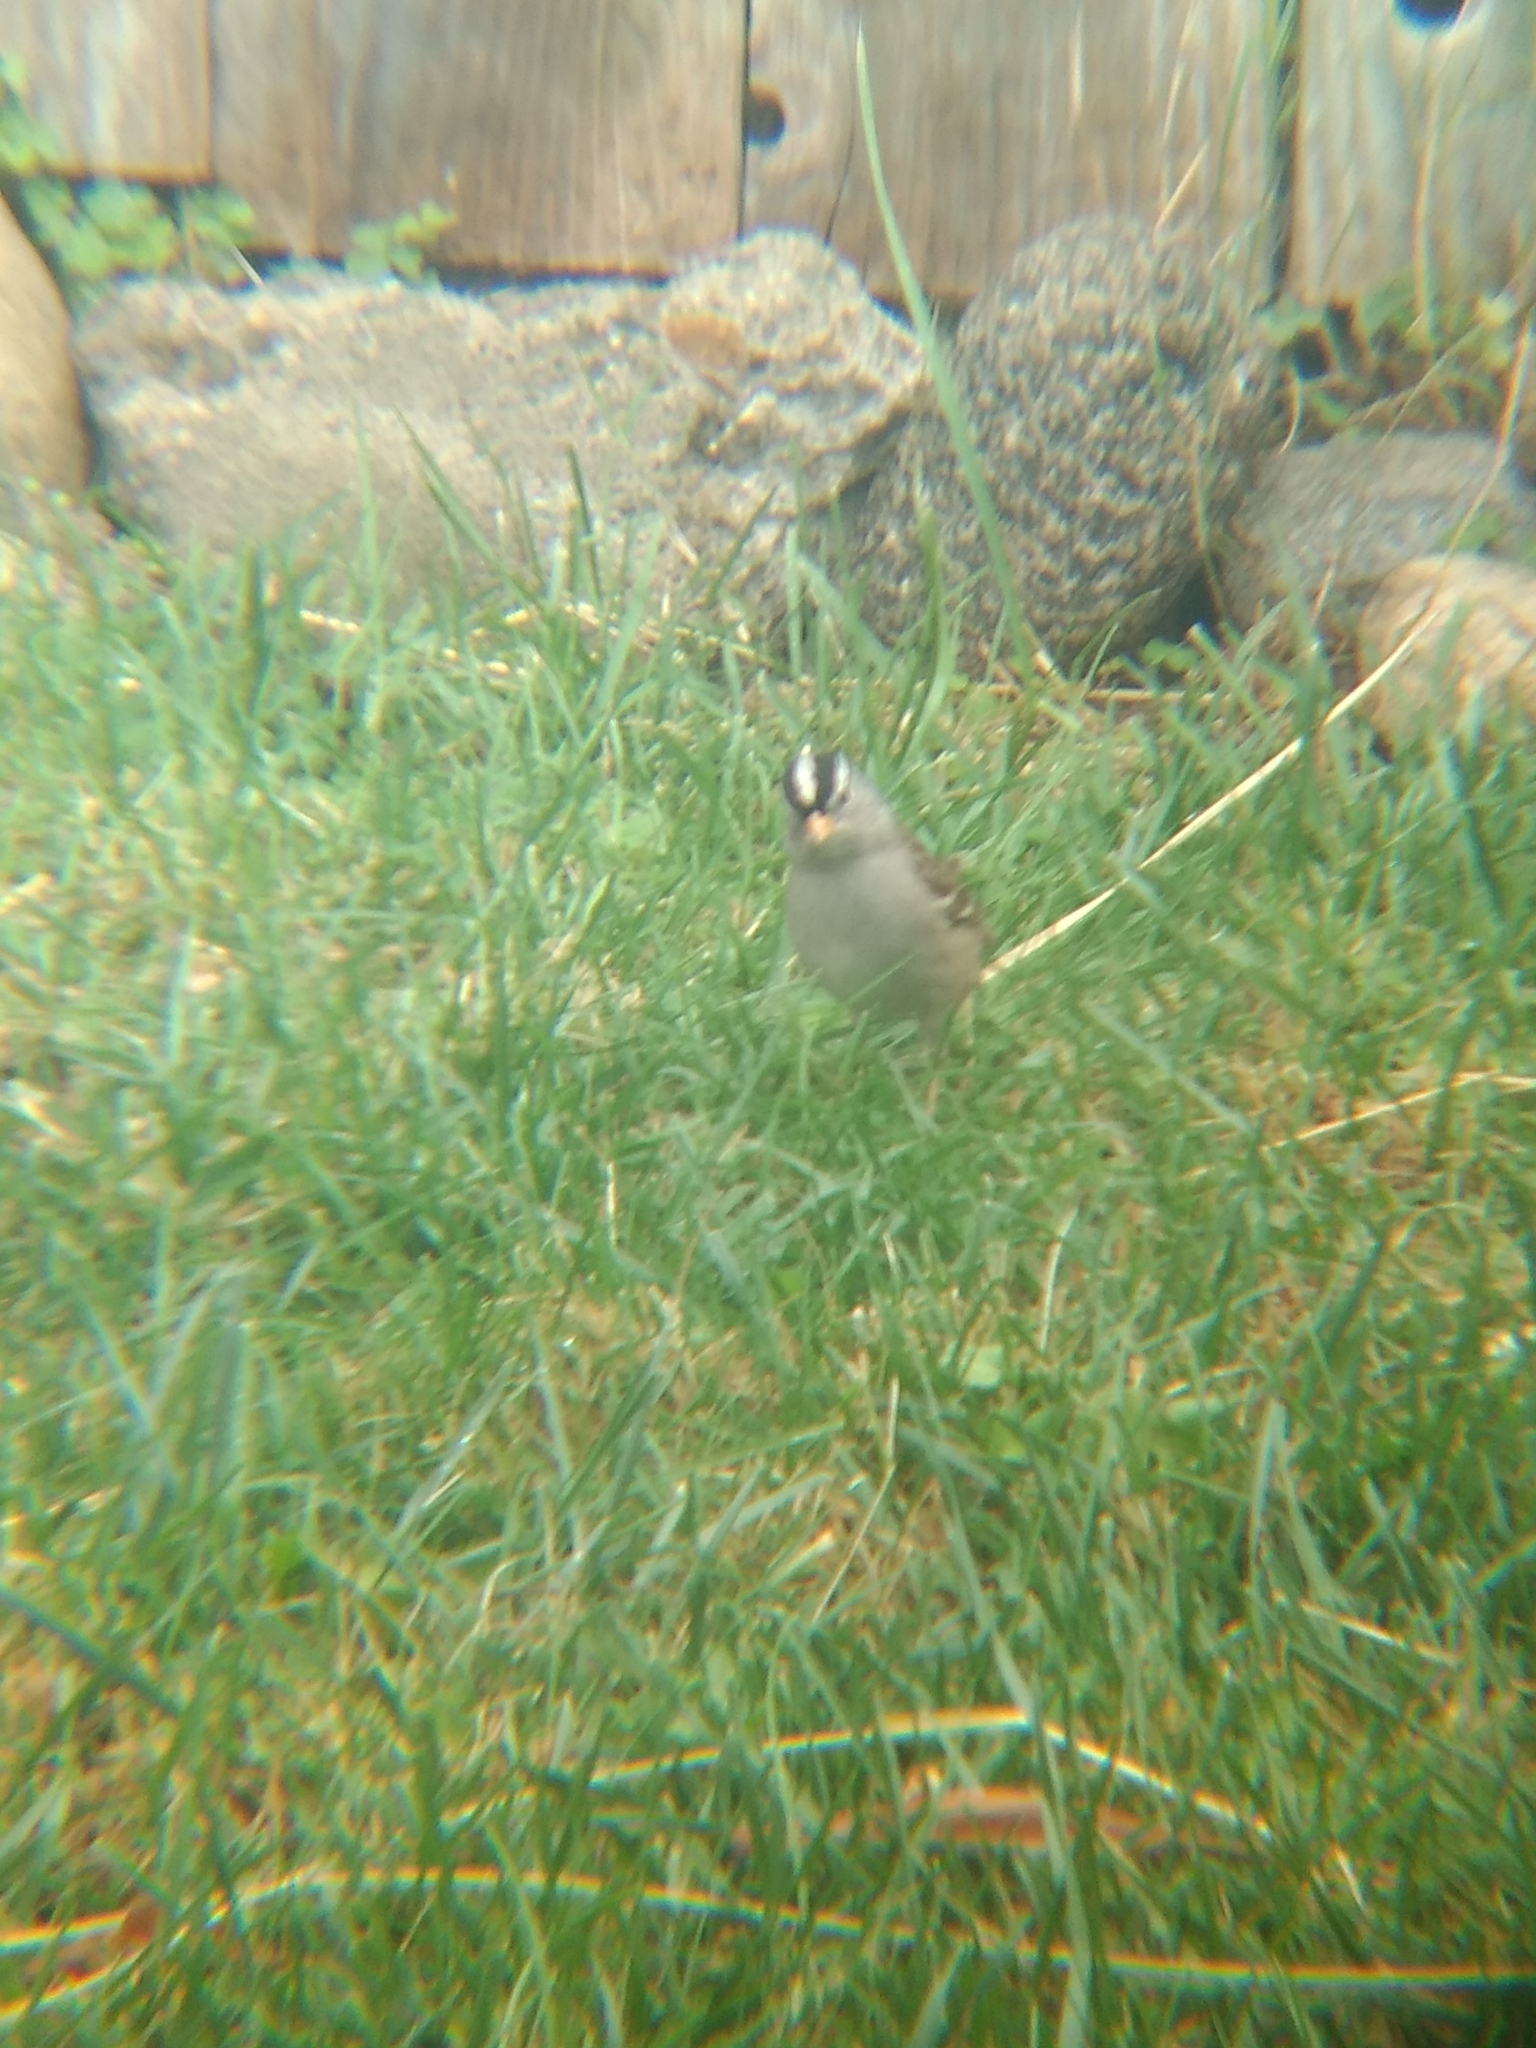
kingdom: Animalia
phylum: Chordata
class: Aves
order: Passeriformes
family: Passerellidae
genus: Zonotrichia
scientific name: Zonotrichia leucophrys
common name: White-crowned sparrow
